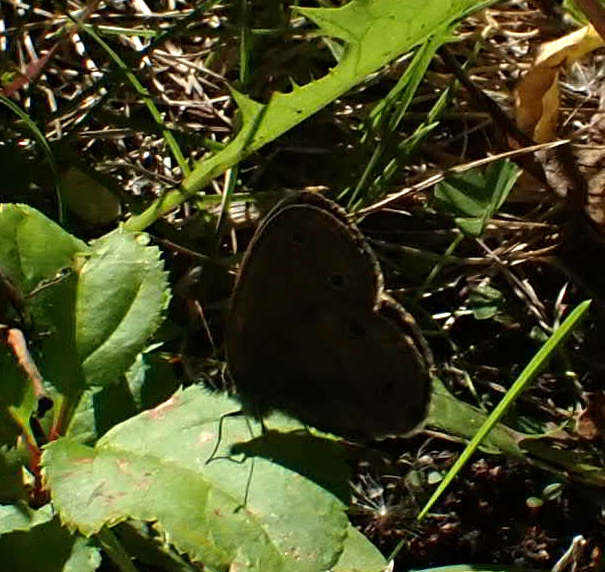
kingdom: Animalia
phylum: Arthropoda
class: Insecta
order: Lepidoptera
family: Nymphalidae
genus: Euptychia
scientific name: Euptychia cymela
